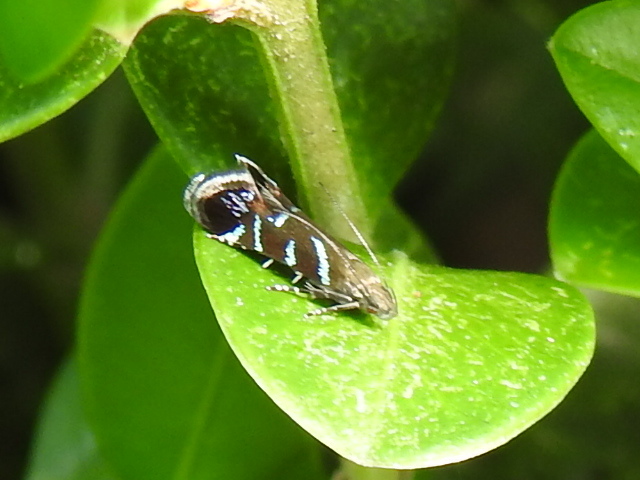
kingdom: Animalia
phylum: Arthropoda
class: Insecta
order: Lepidoptera
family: Gelechiidae
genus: Strobisia
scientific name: Strobisia proserpinella
